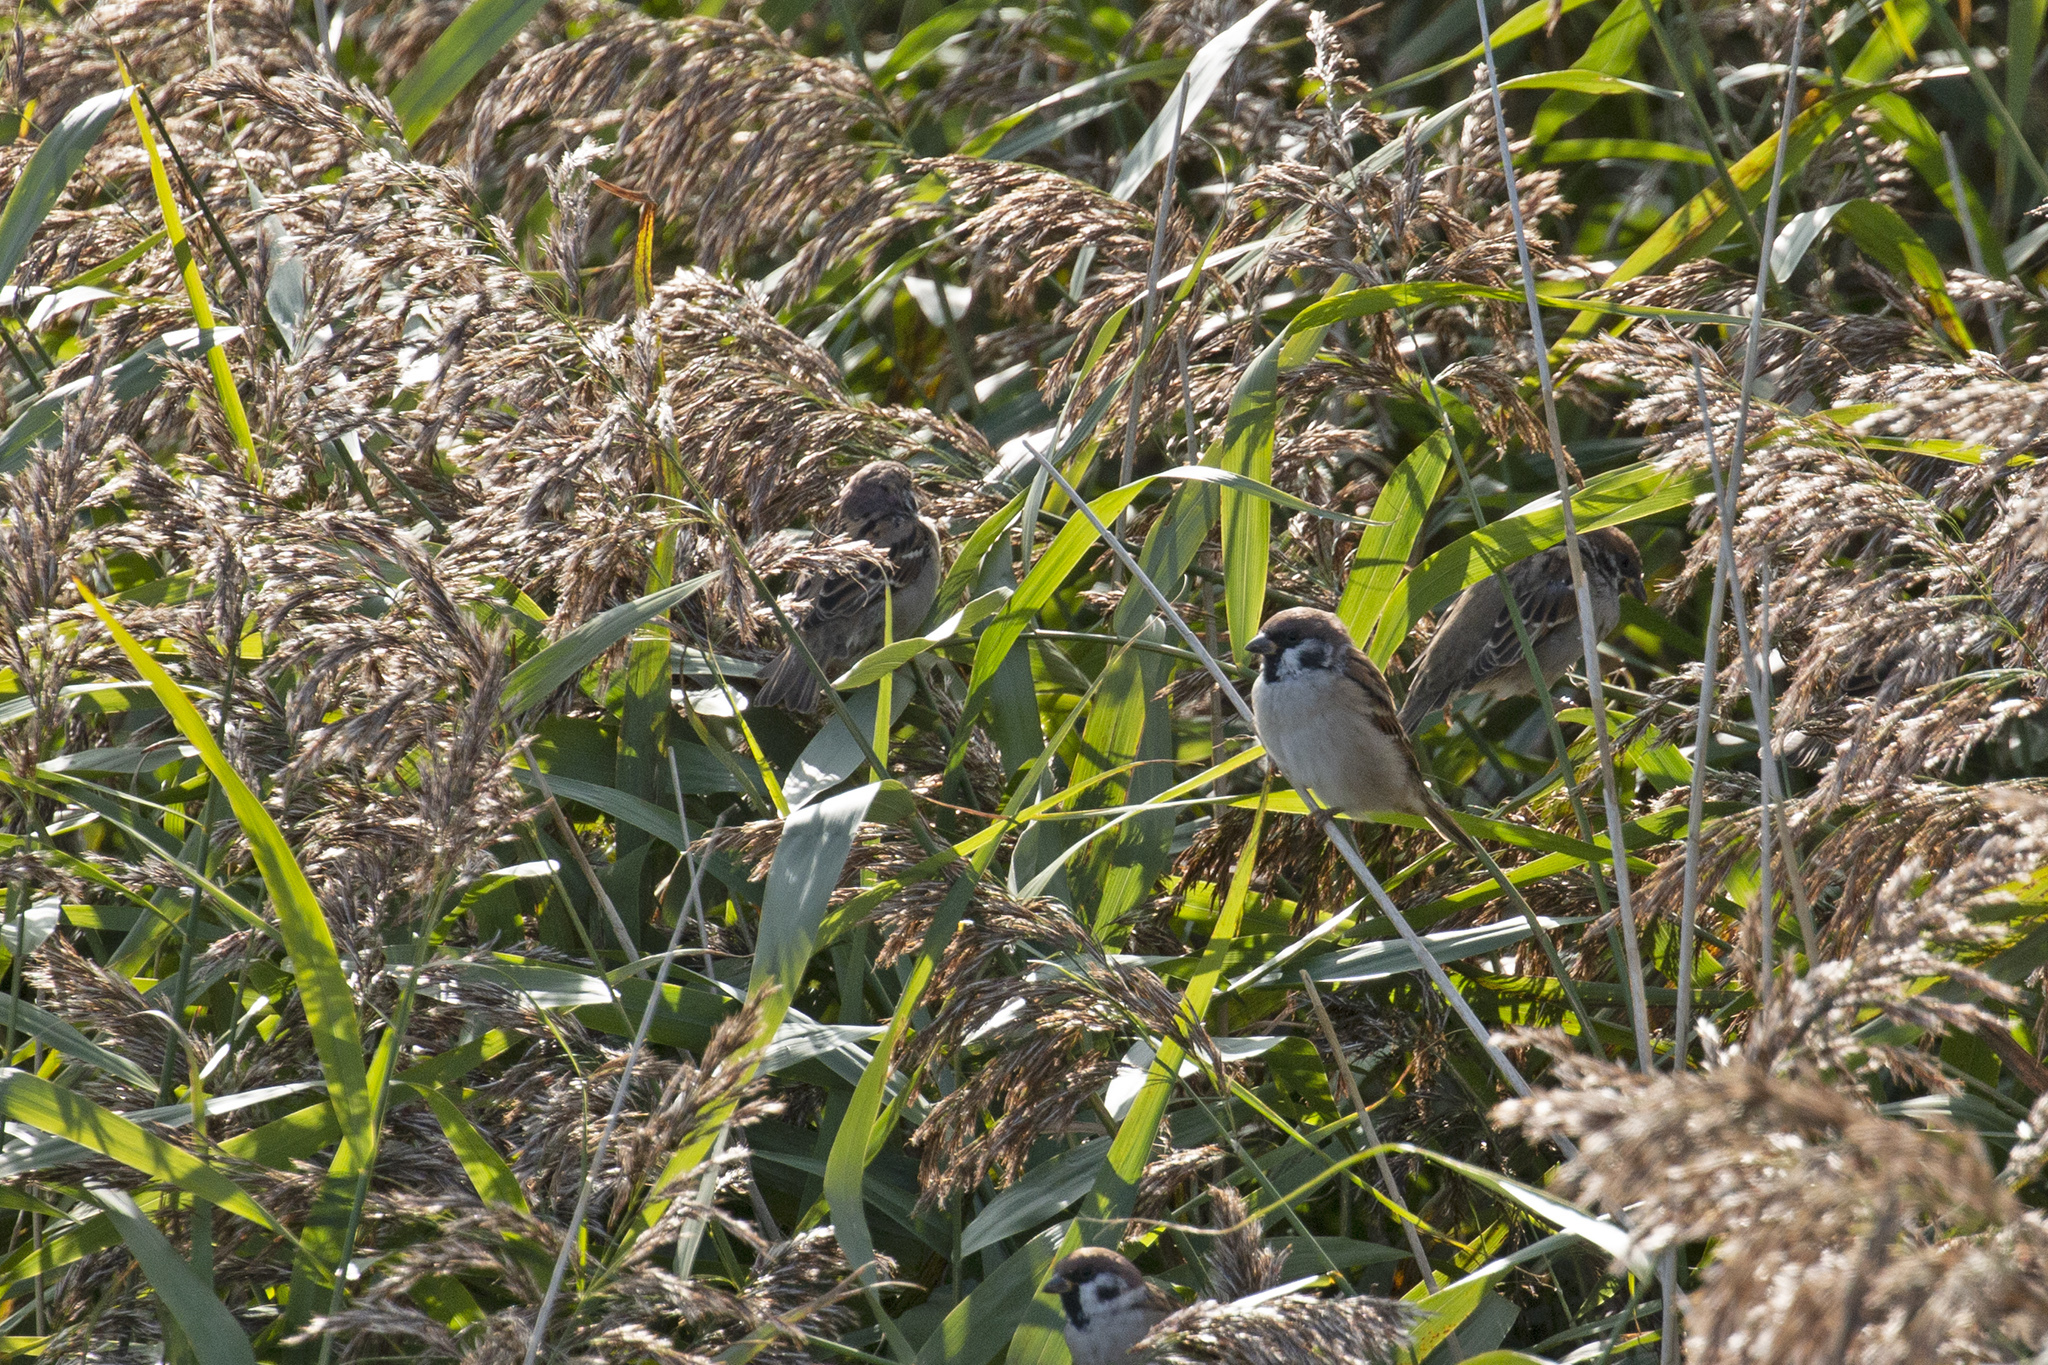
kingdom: Animalia
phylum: Chordata
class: Aves
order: Passeriformes
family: Passeridae
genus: Passer
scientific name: Passer montanus
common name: Eurasian tree sparrow
